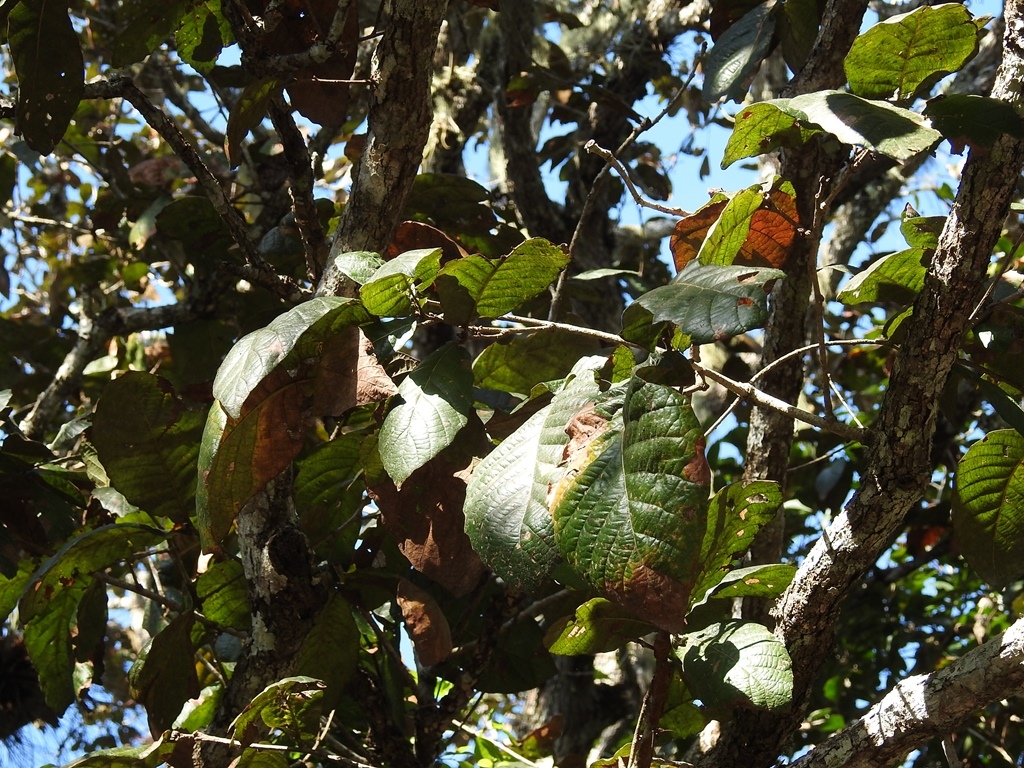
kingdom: Plantae
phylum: Tracheophyta
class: Magnoliopsida
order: Fagales
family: Fagaceae
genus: Quercus
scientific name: Quercus purulhana
